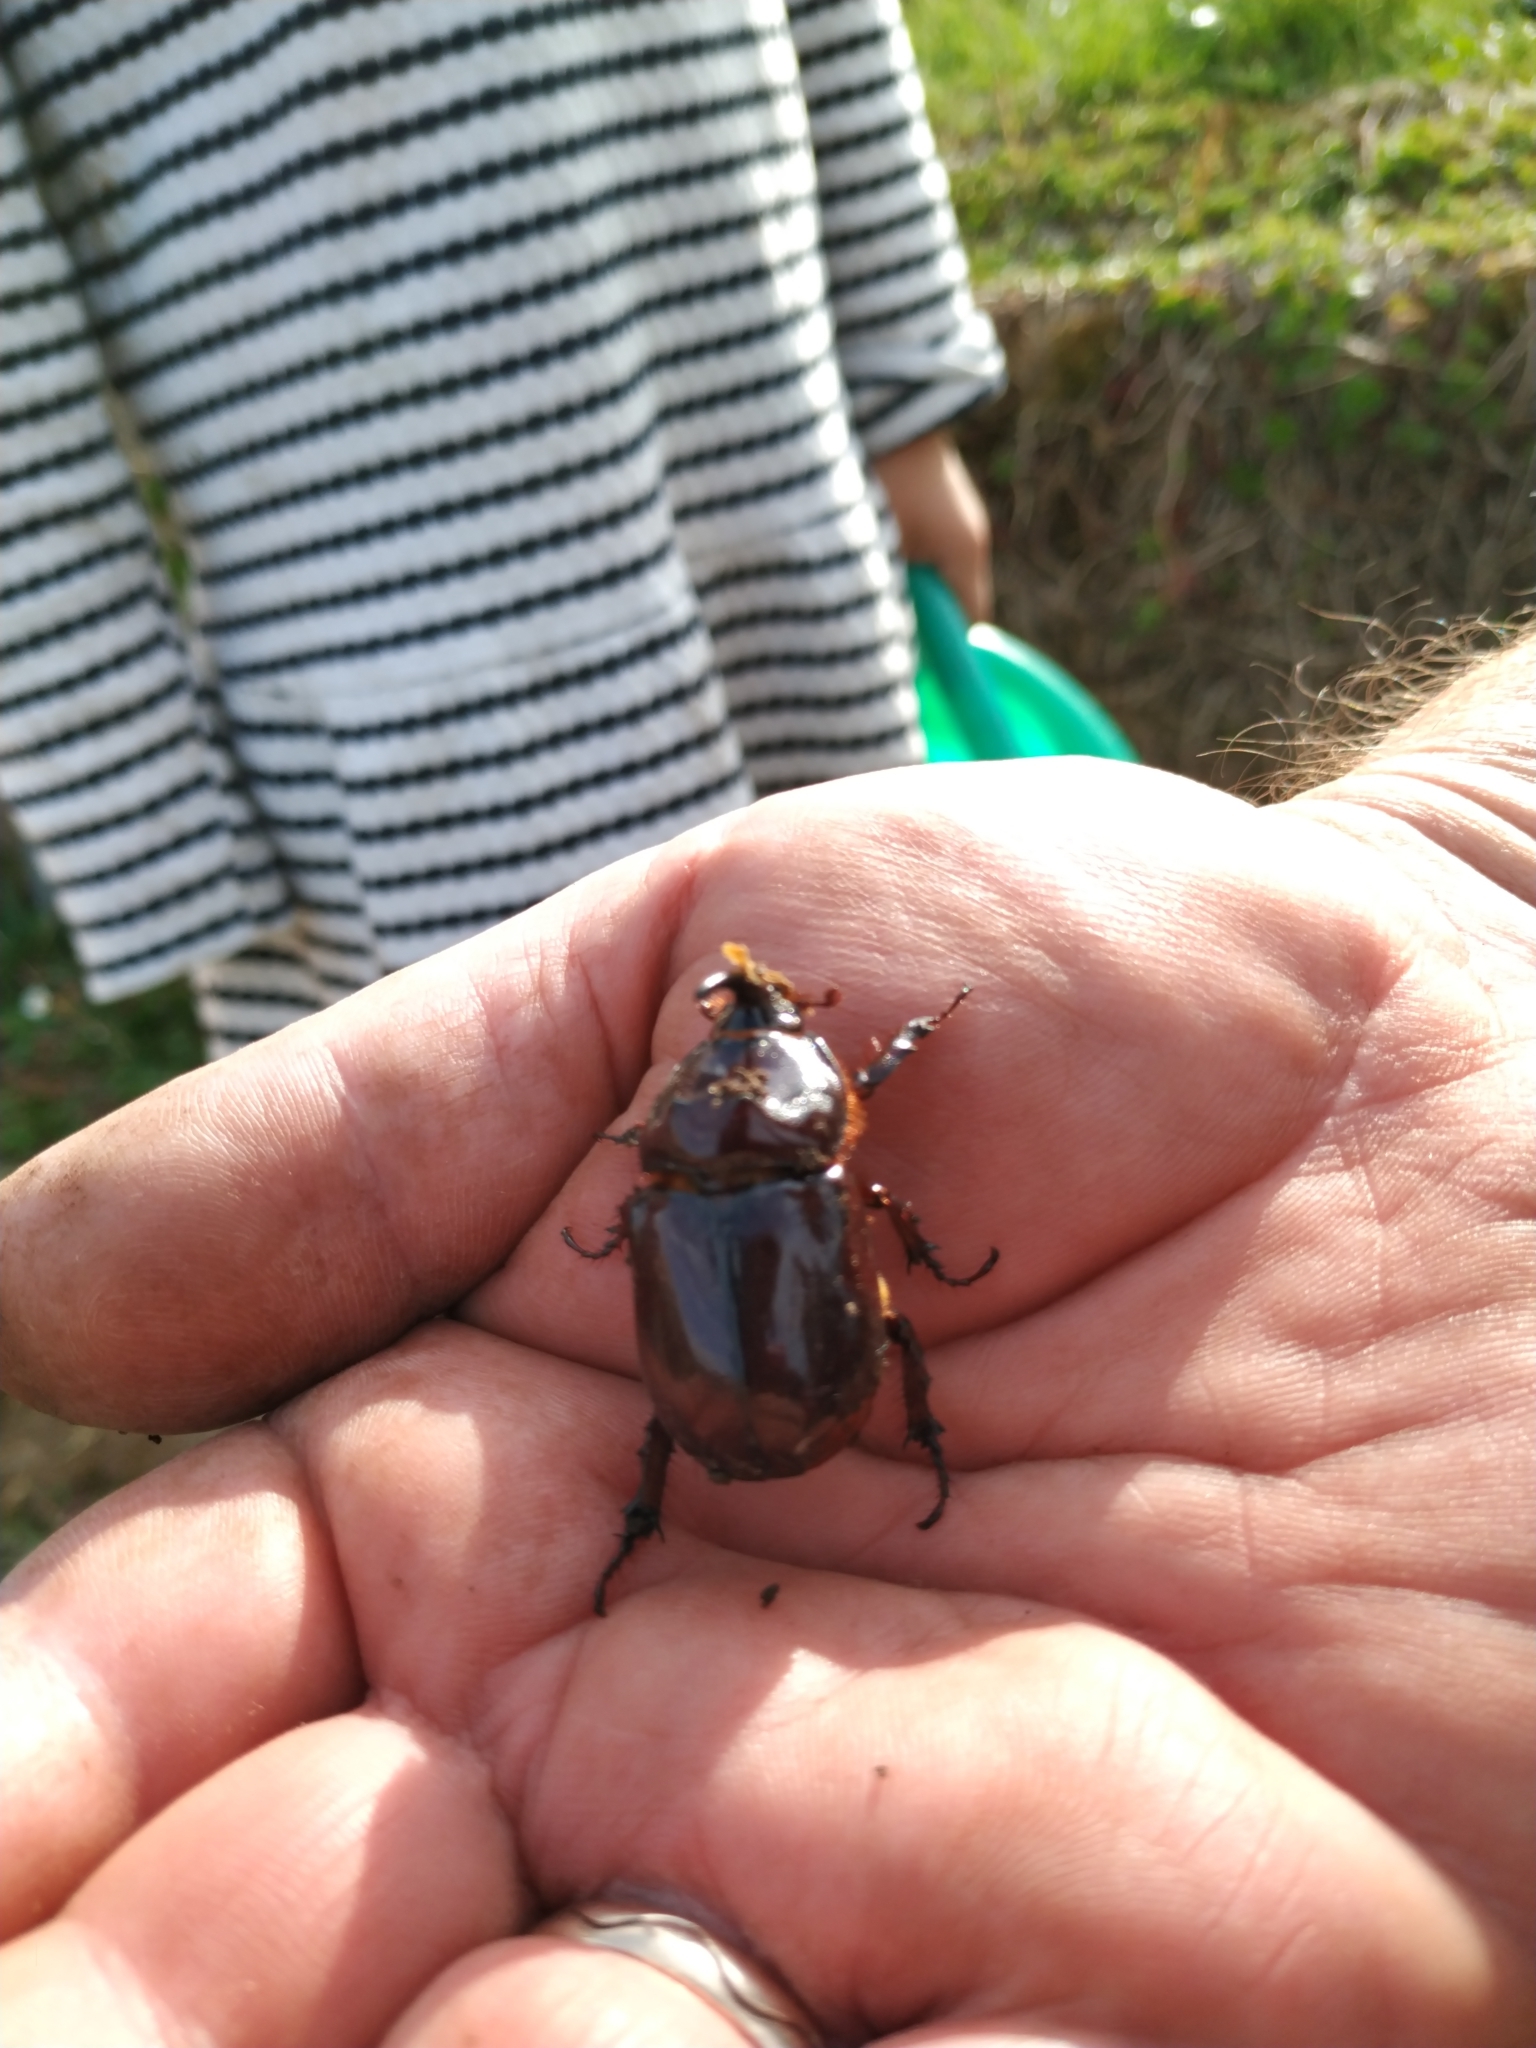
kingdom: Animalia
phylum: Arthropoda
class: Insecta
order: Coleoptera
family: Scarabaeidae
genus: Oryctes
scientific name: Oryctes nasicornis
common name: European rhinoceros beetle
